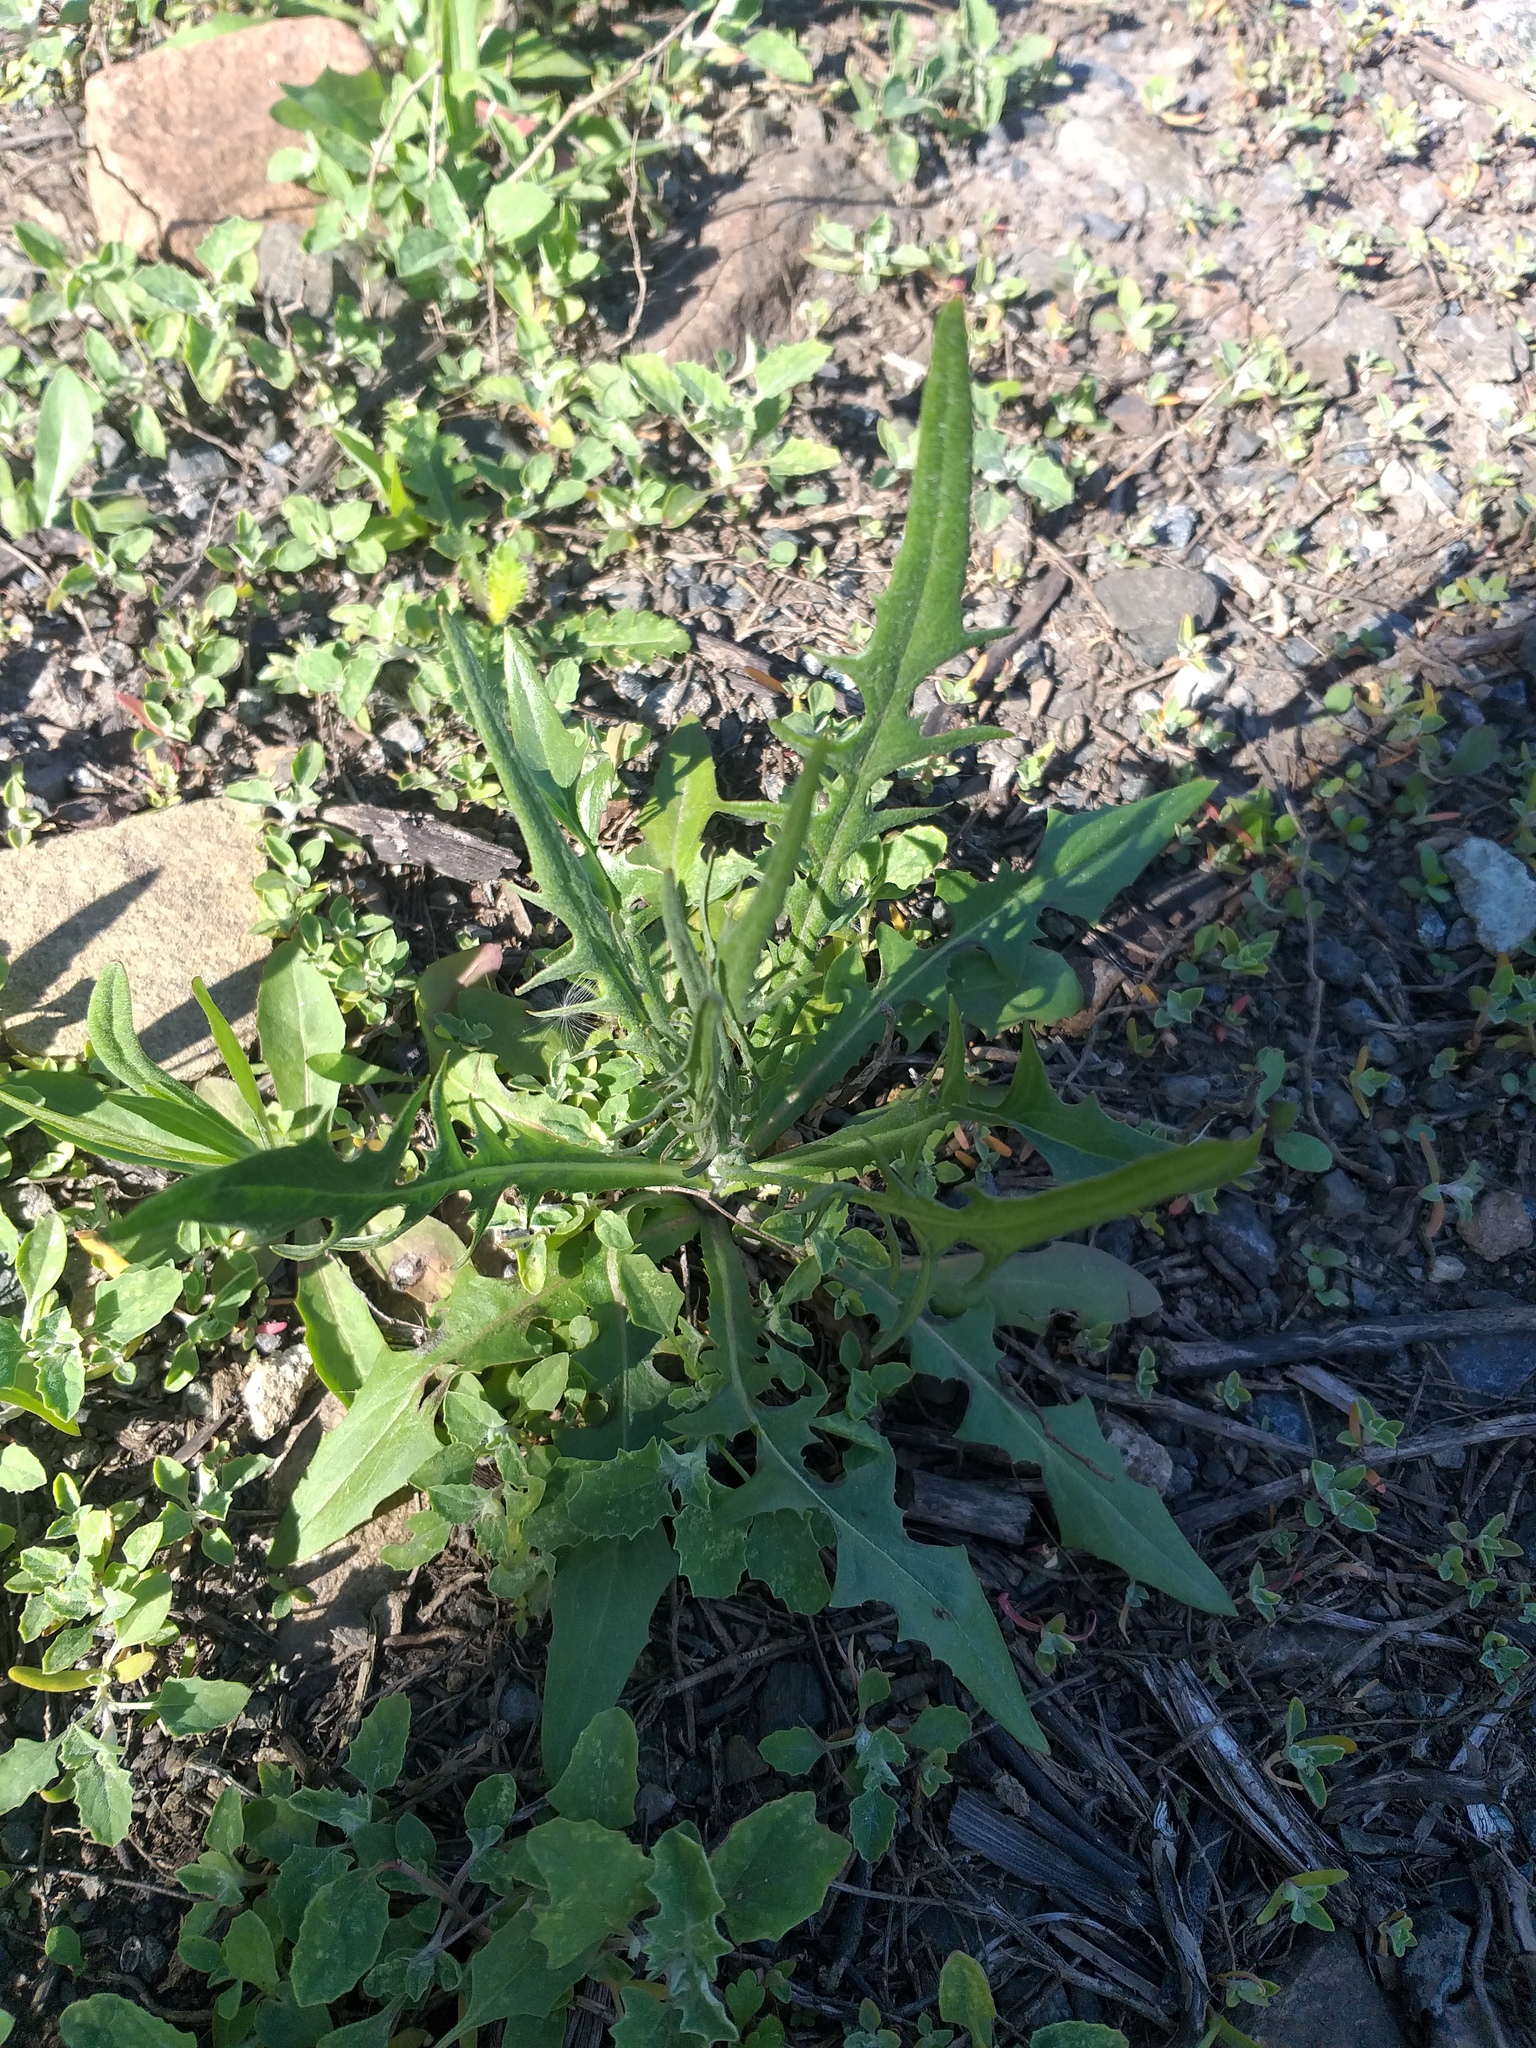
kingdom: Plantae
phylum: Tracheophyta
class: Magnoliopsida
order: Asterales
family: Asteraceae
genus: Crepis
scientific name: Crepis tectorum
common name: Narrow-leaved hawk's-beard
